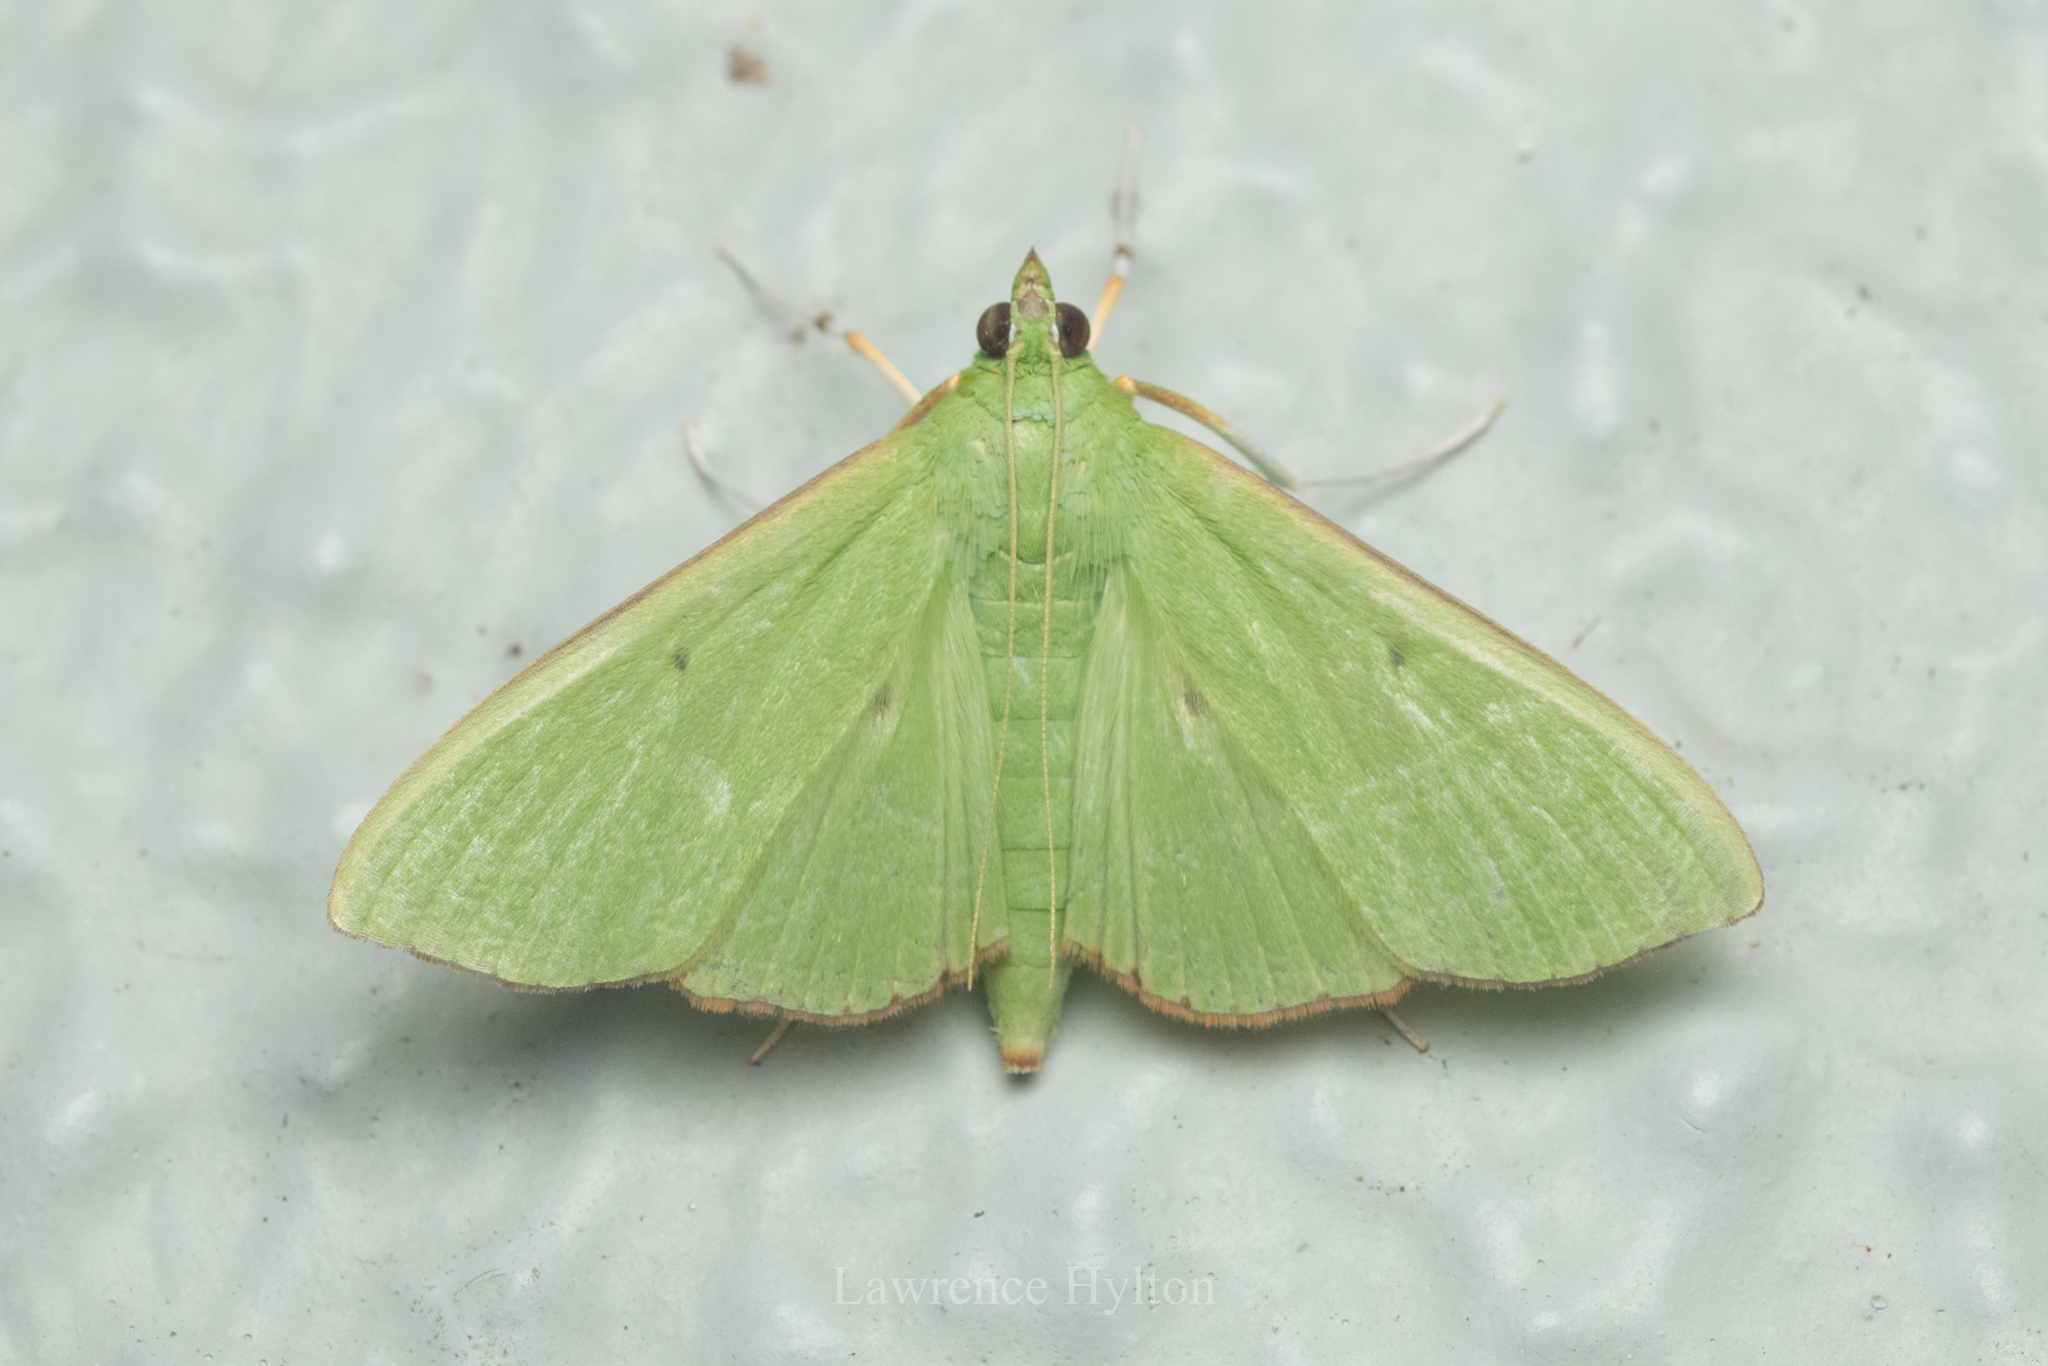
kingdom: Animalia
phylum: Arthropoda
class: Insecta
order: Lepidoptera
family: Crambidae
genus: Parotis
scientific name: Parotis punctiferalis
